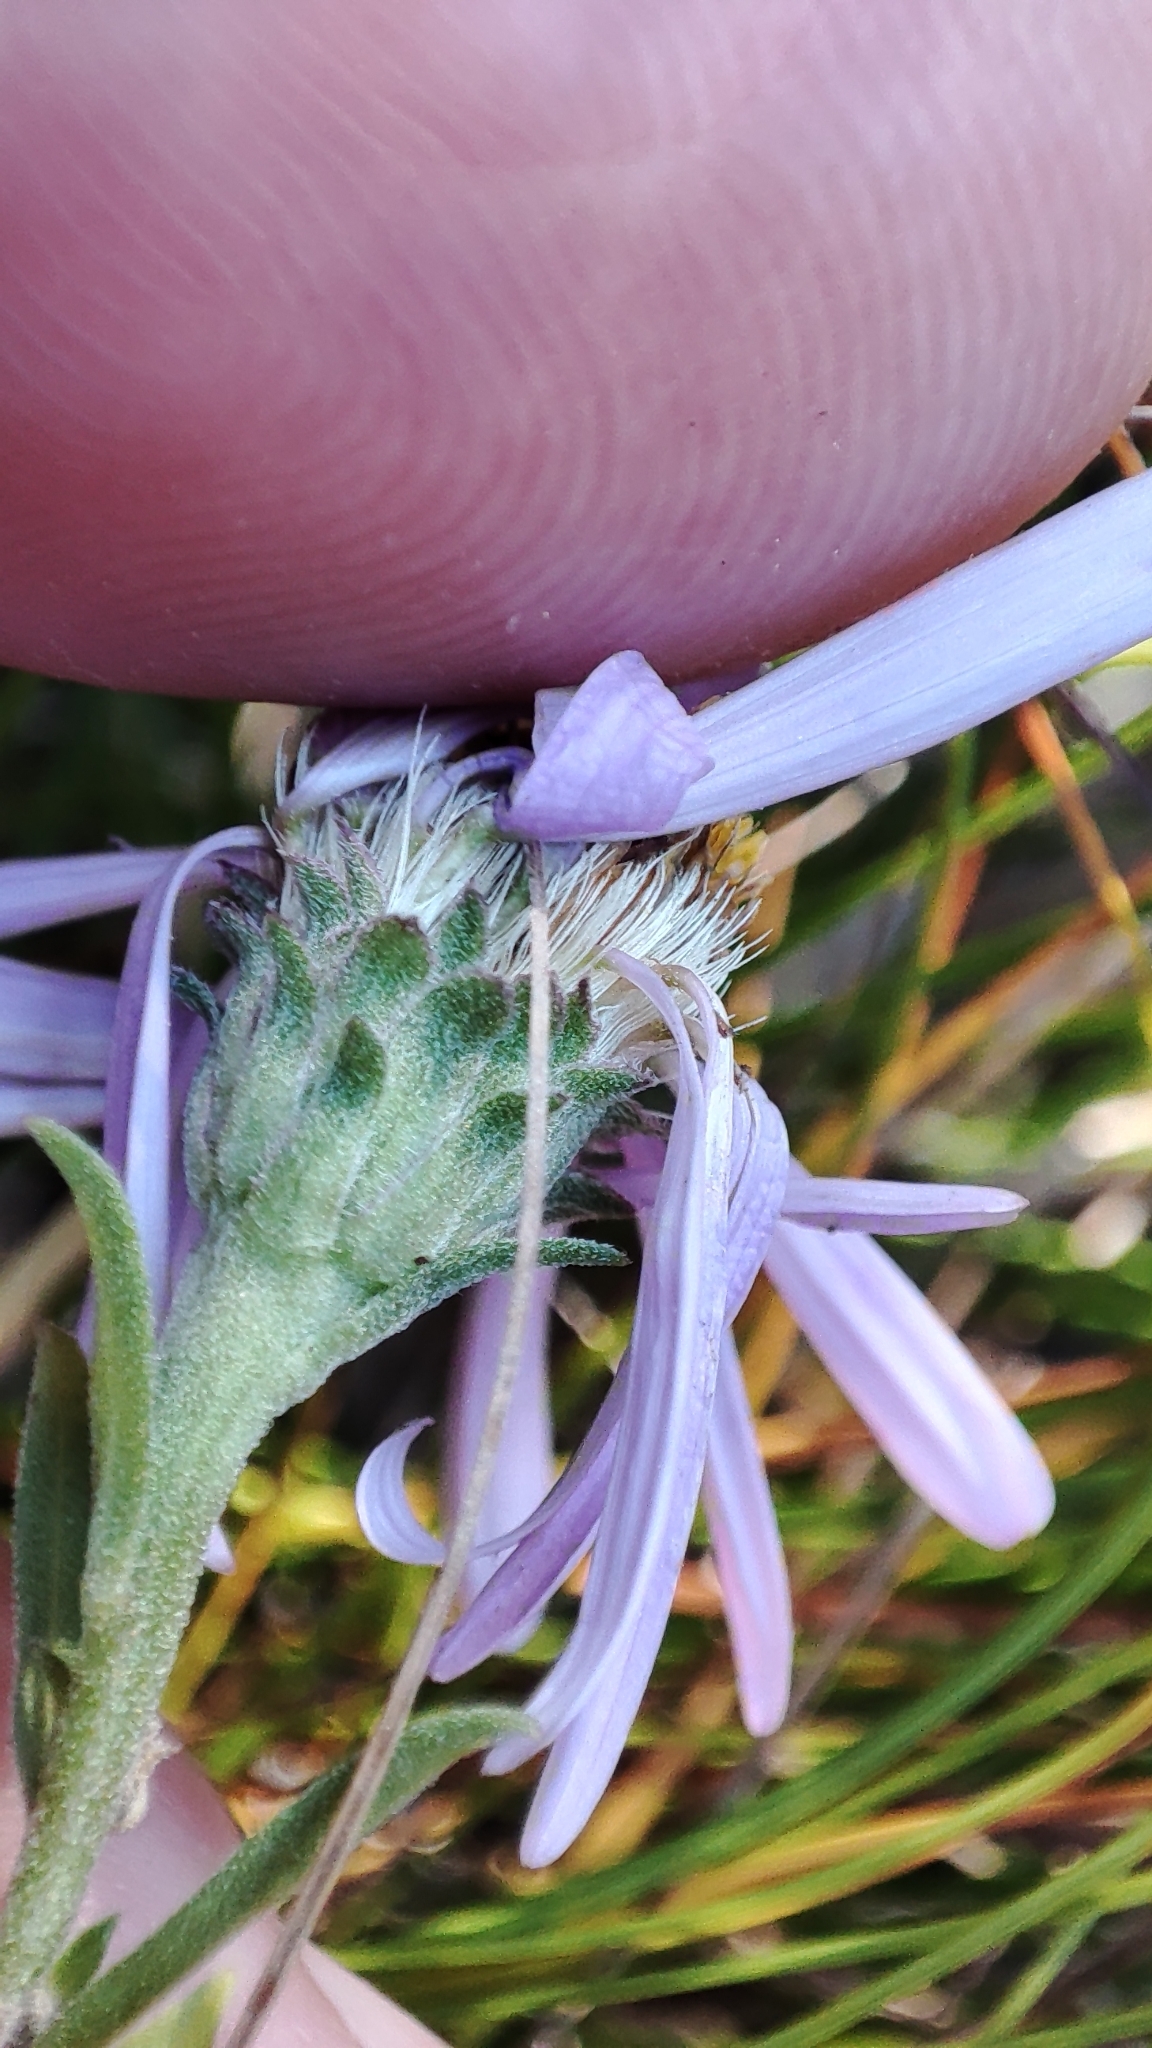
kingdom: Plantae
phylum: Tracheophyta
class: Magnoliopsida
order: Asterales
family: Asteraceae
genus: Galatella
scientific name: Galatella sedifolia
